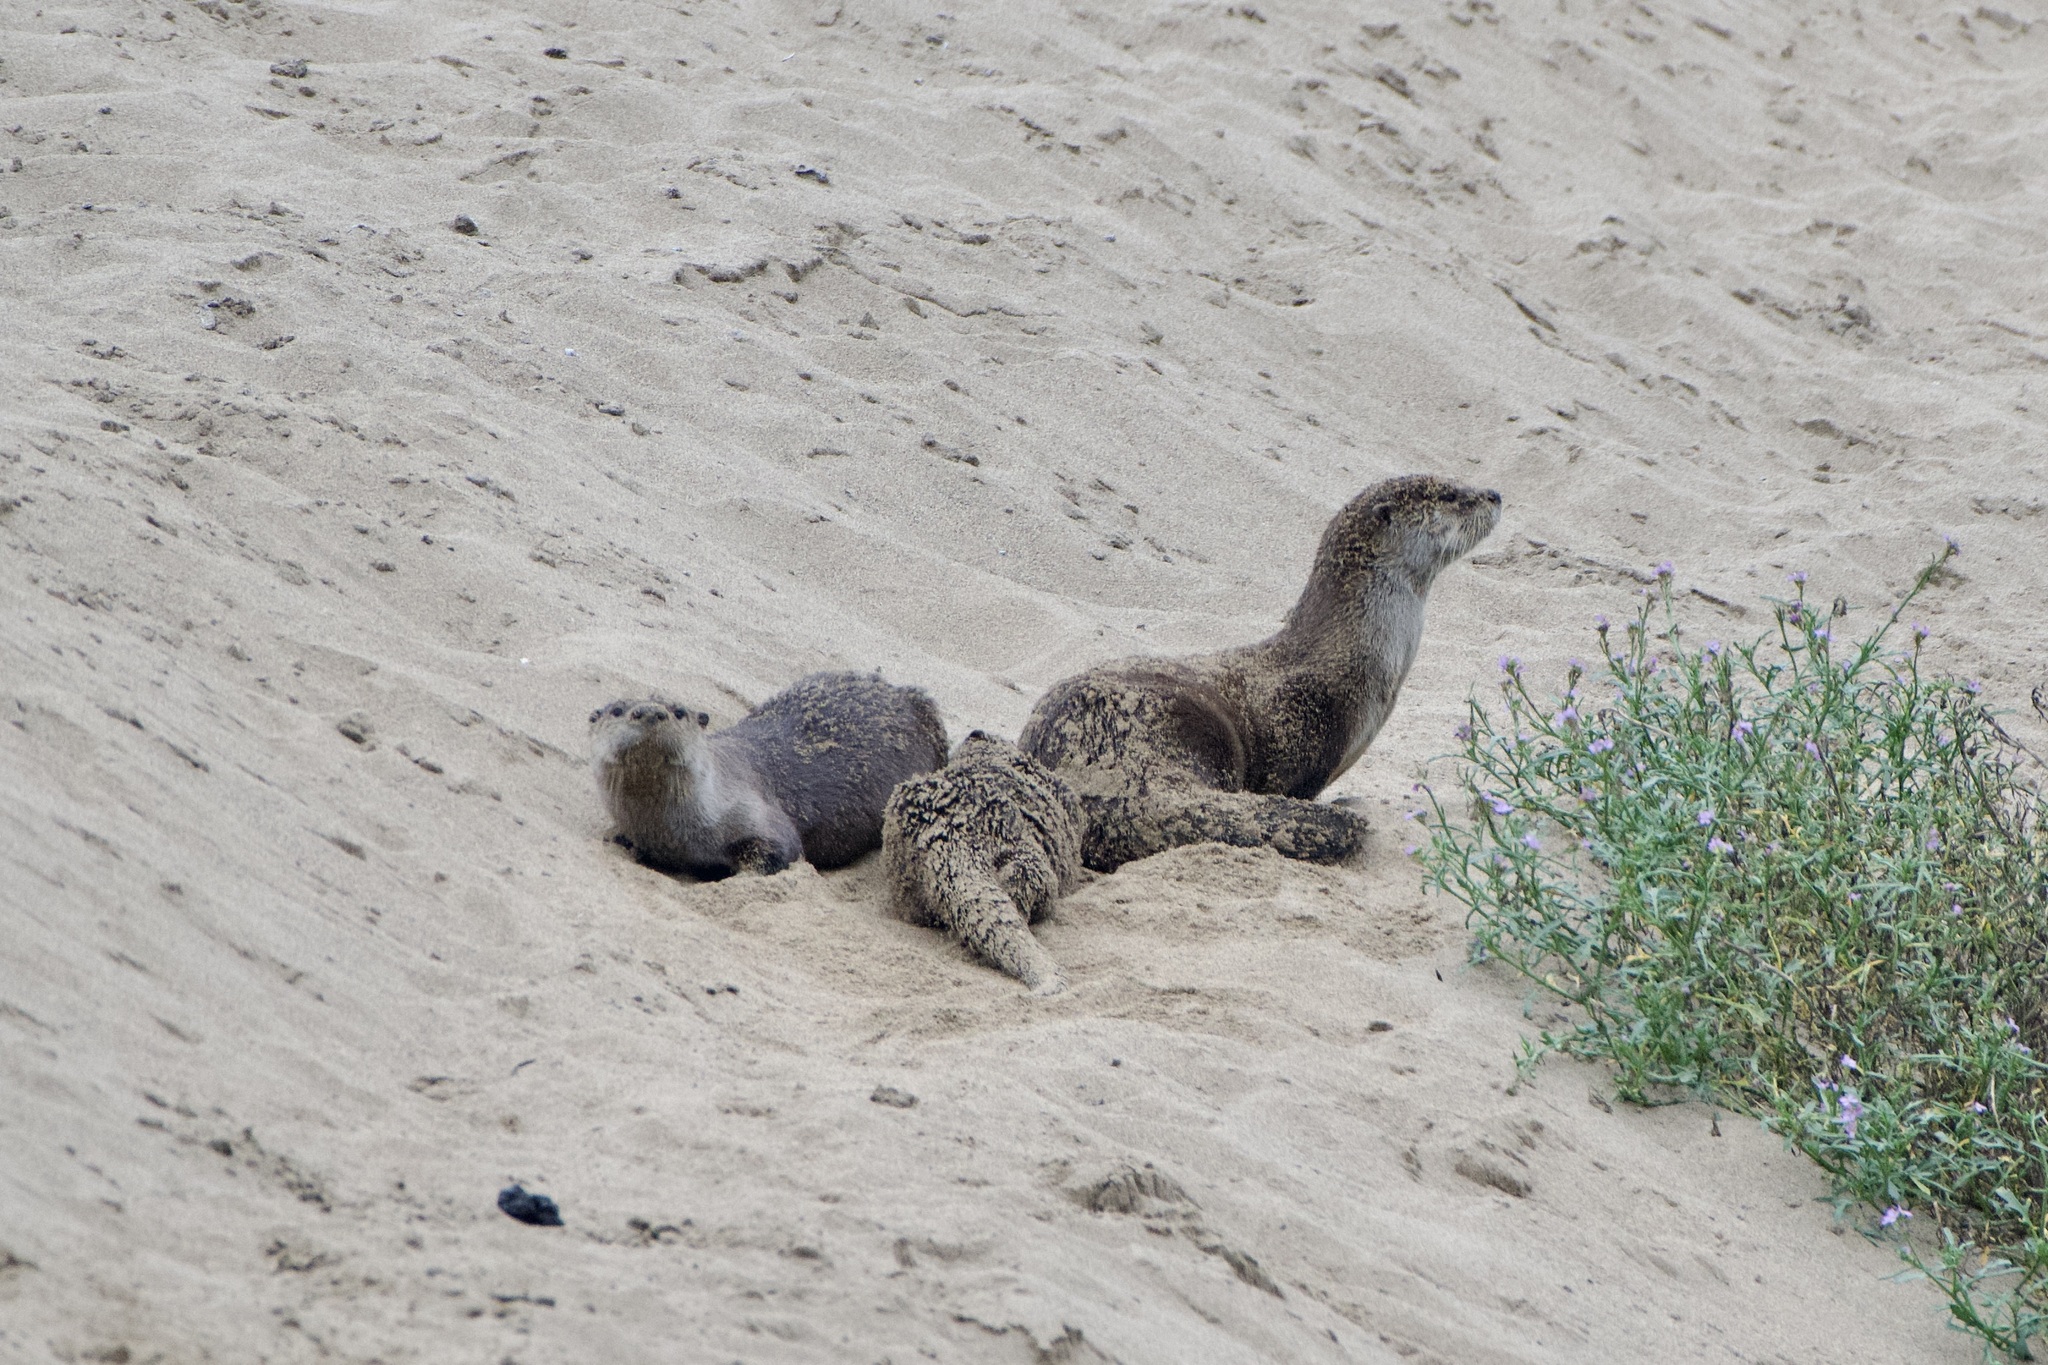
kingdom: Animalia
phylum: Chordata
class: Mammalia
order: Carnivora
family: Mustelidae
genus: Lontra
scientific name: Lontra canadensis
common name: North american river otter
